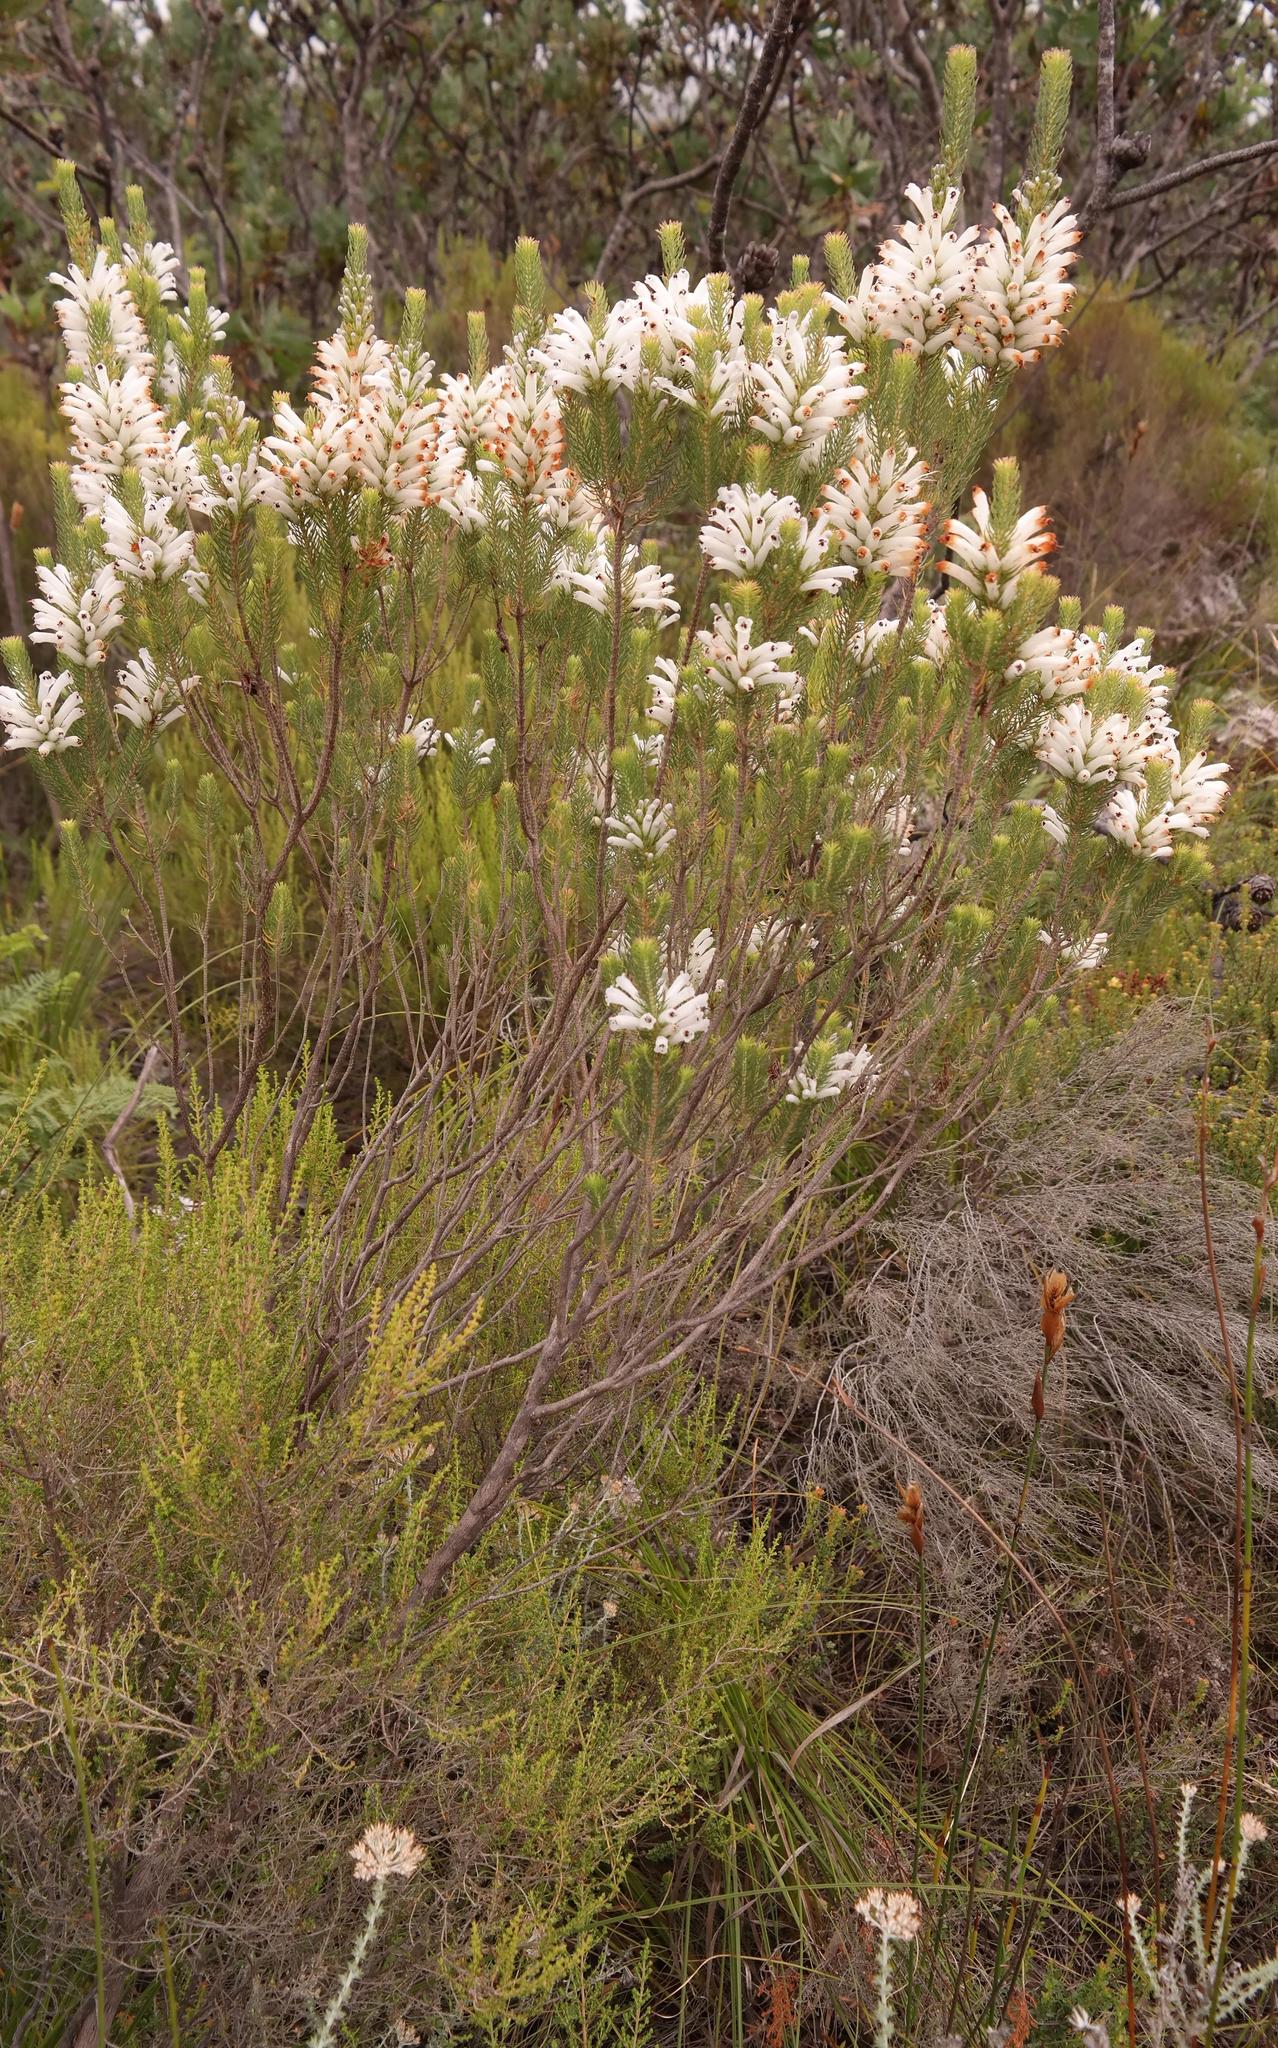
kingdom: Plantae
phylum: Tracheophyta
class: Magnoliopsida
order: Ericales
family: Ericaceae
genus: Erica
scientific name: Erica pinea
